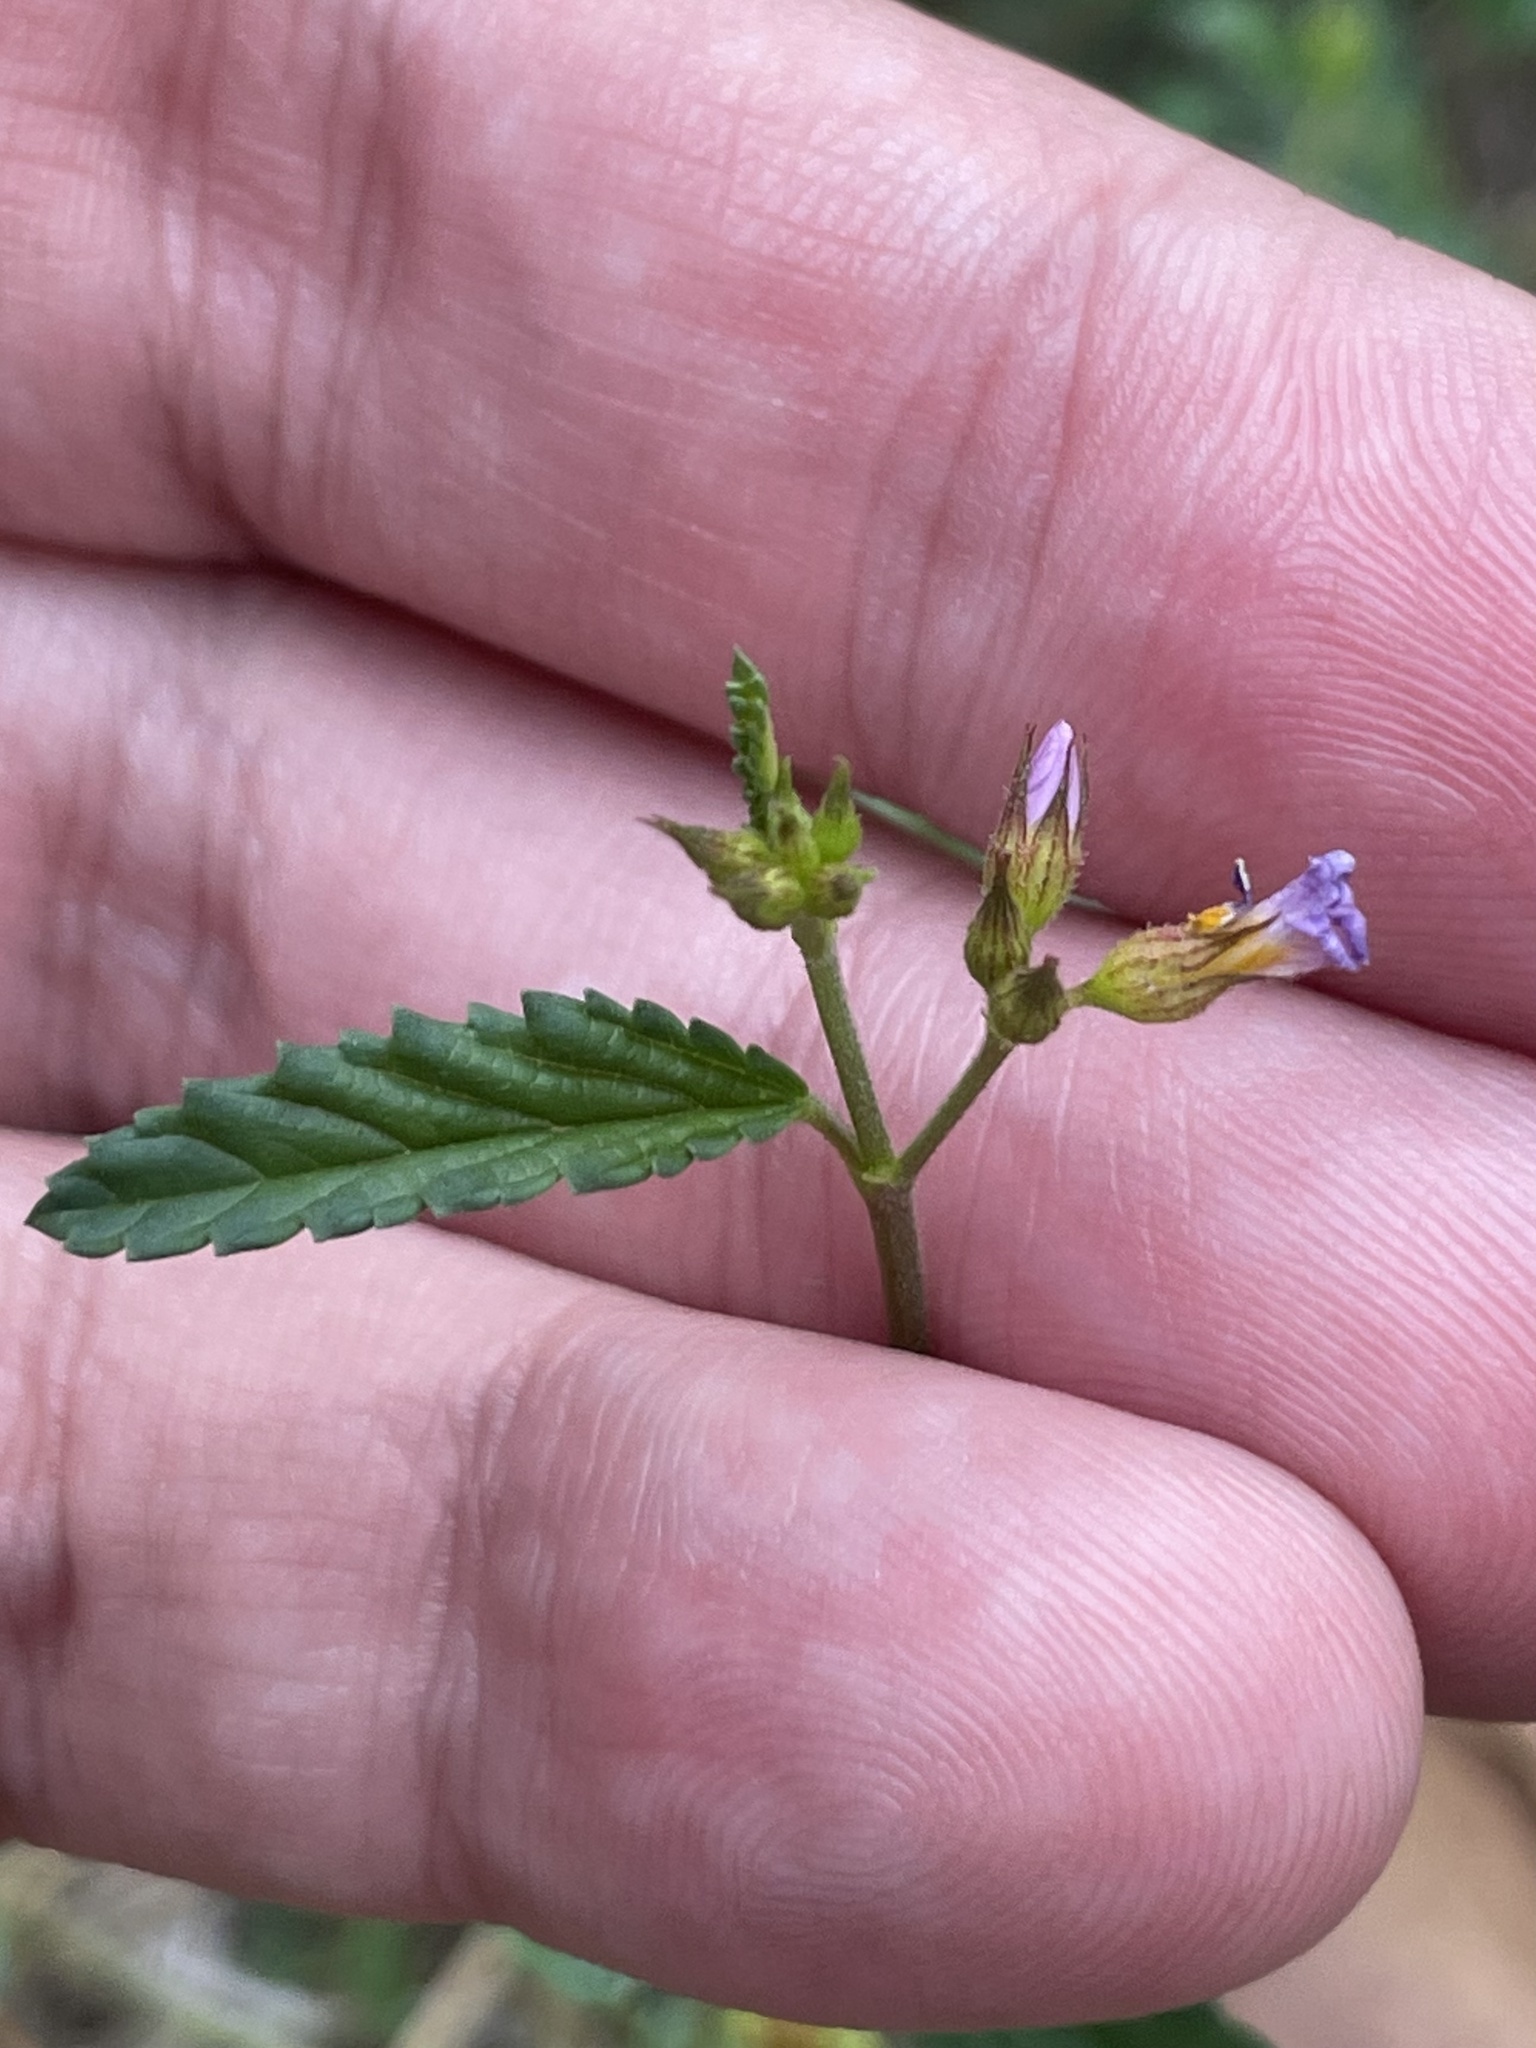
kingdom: Plantae
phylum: Tracheophyta
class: Magnoliopsida
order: Malvales
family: Malvaceae
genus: Melochia
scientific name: Melochia pyramidata
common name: Pyramidflower
